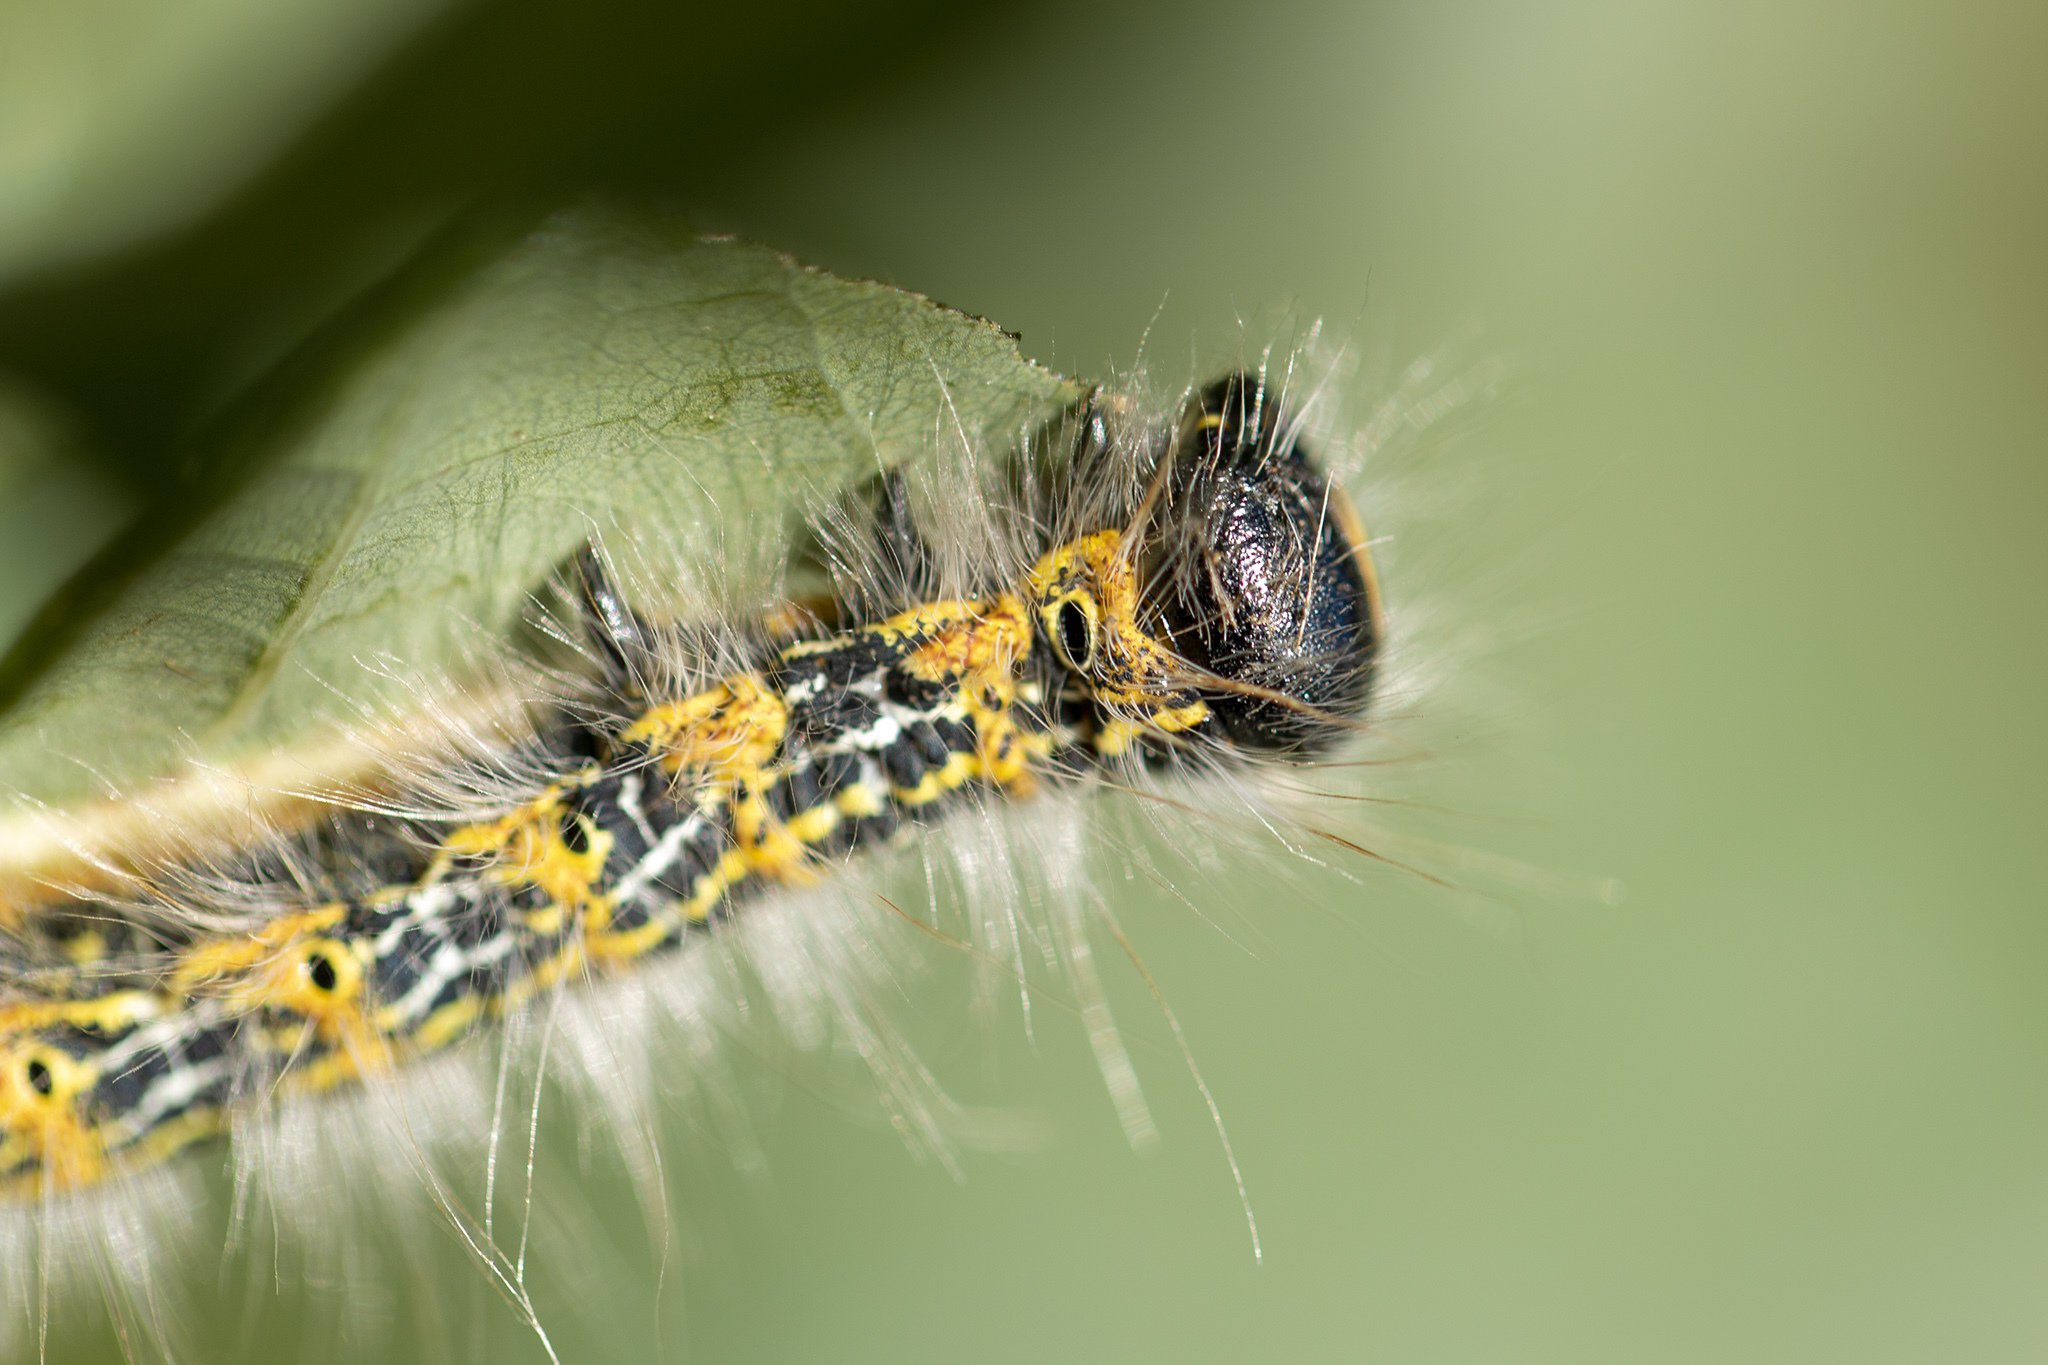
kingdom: Animalia
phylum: Arthropoda
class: Insecta
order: Lepidoptera
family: Notodontidae
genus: Phalera
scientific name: Phalera bucephala
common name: Buff-tip
